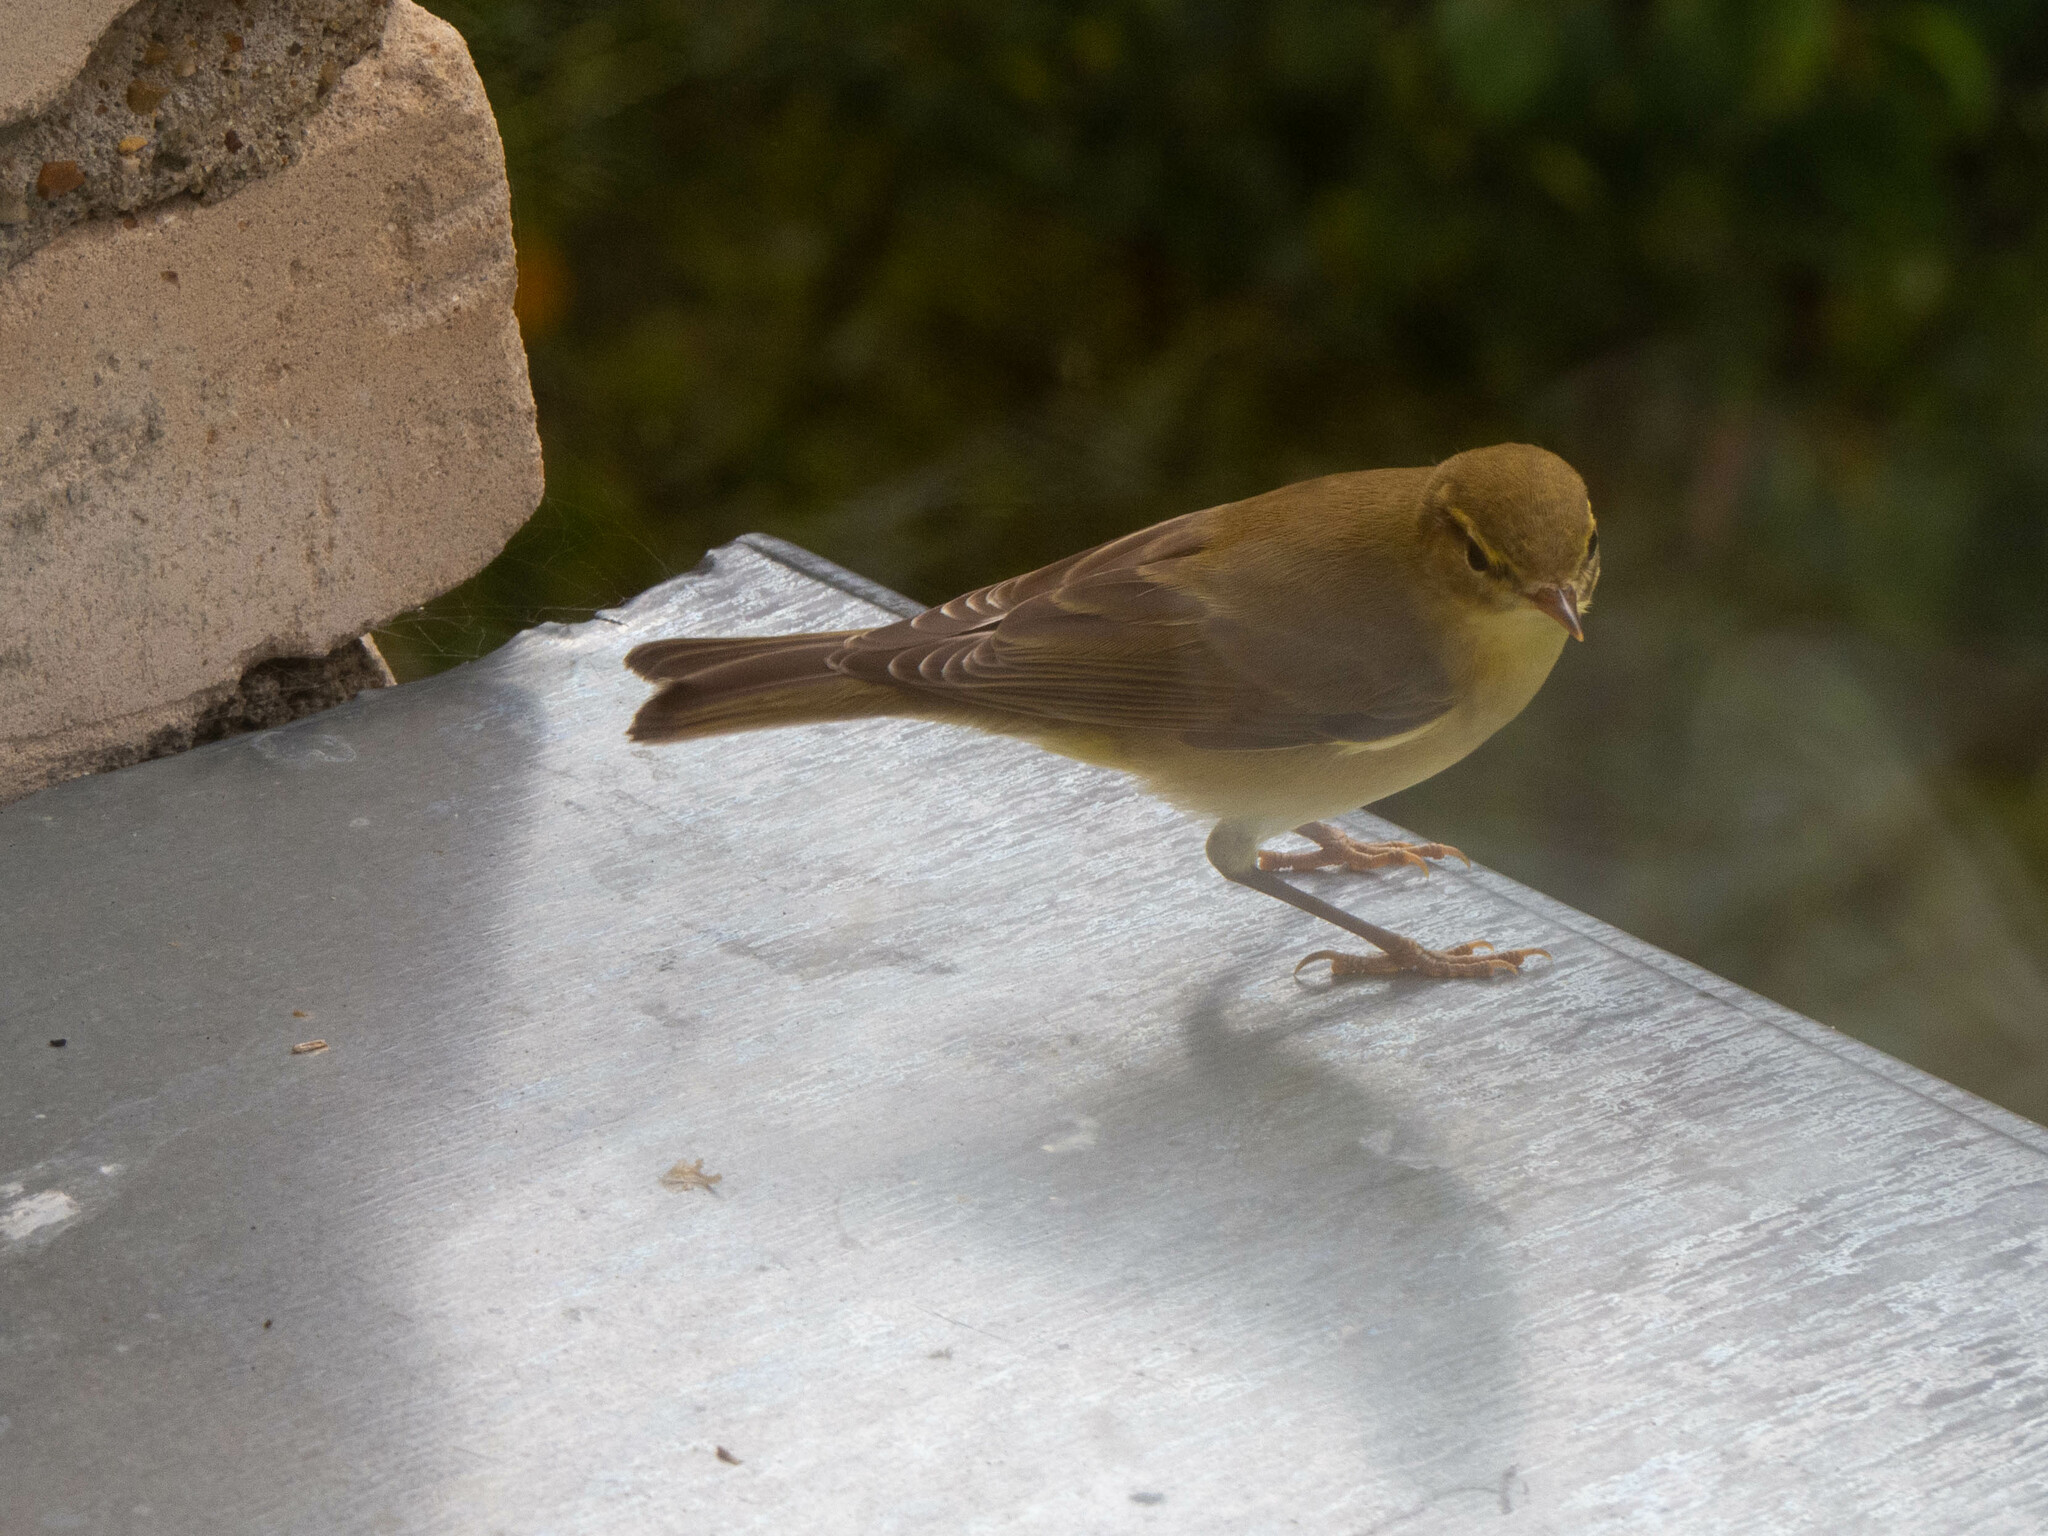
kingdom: Animalia
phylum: Chordata
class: Aves
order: Passeriformes
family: Phylloscopidae
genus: Phylloscopus
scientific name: Phylloscopus trochilus
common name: Willow warbler
